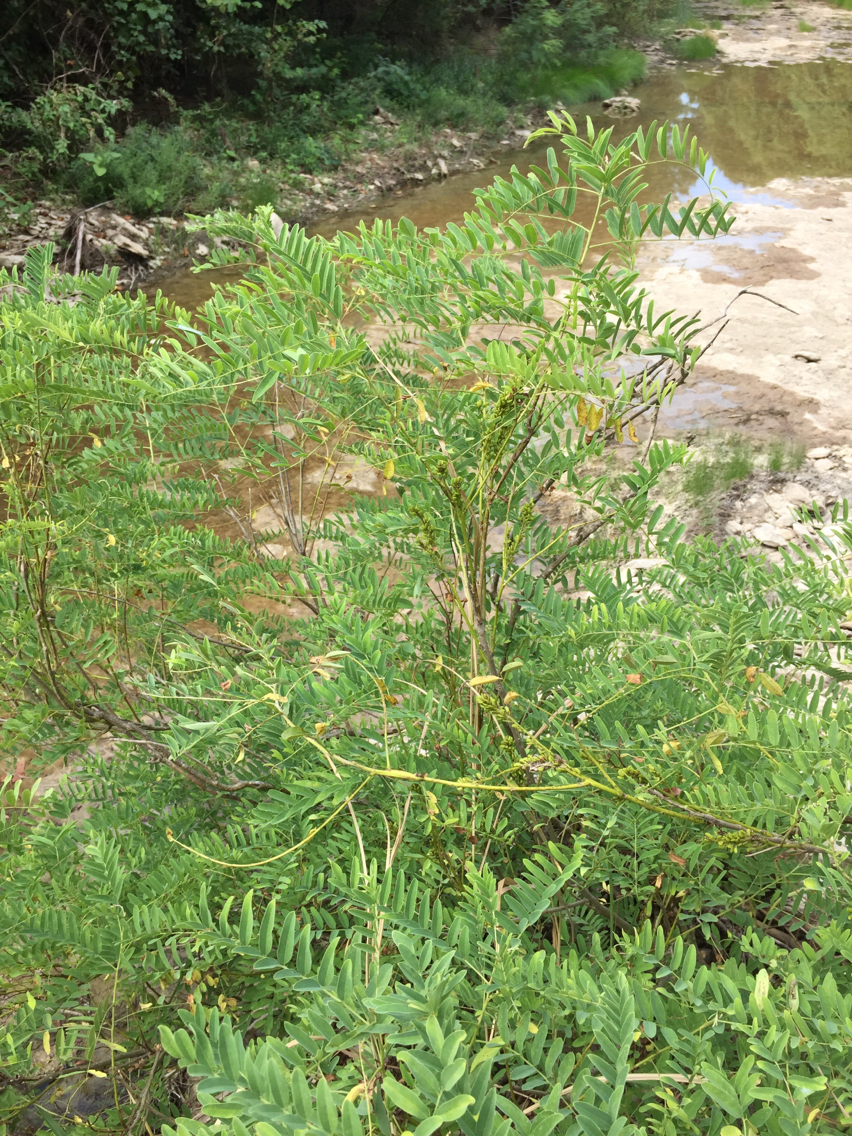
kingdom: Plantae
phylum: Tracheophyta
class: Magnoliopsida
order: Fabales
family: Fabaceae
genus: Amorpha
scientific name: Amorpha fruticosa
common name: False indigo
